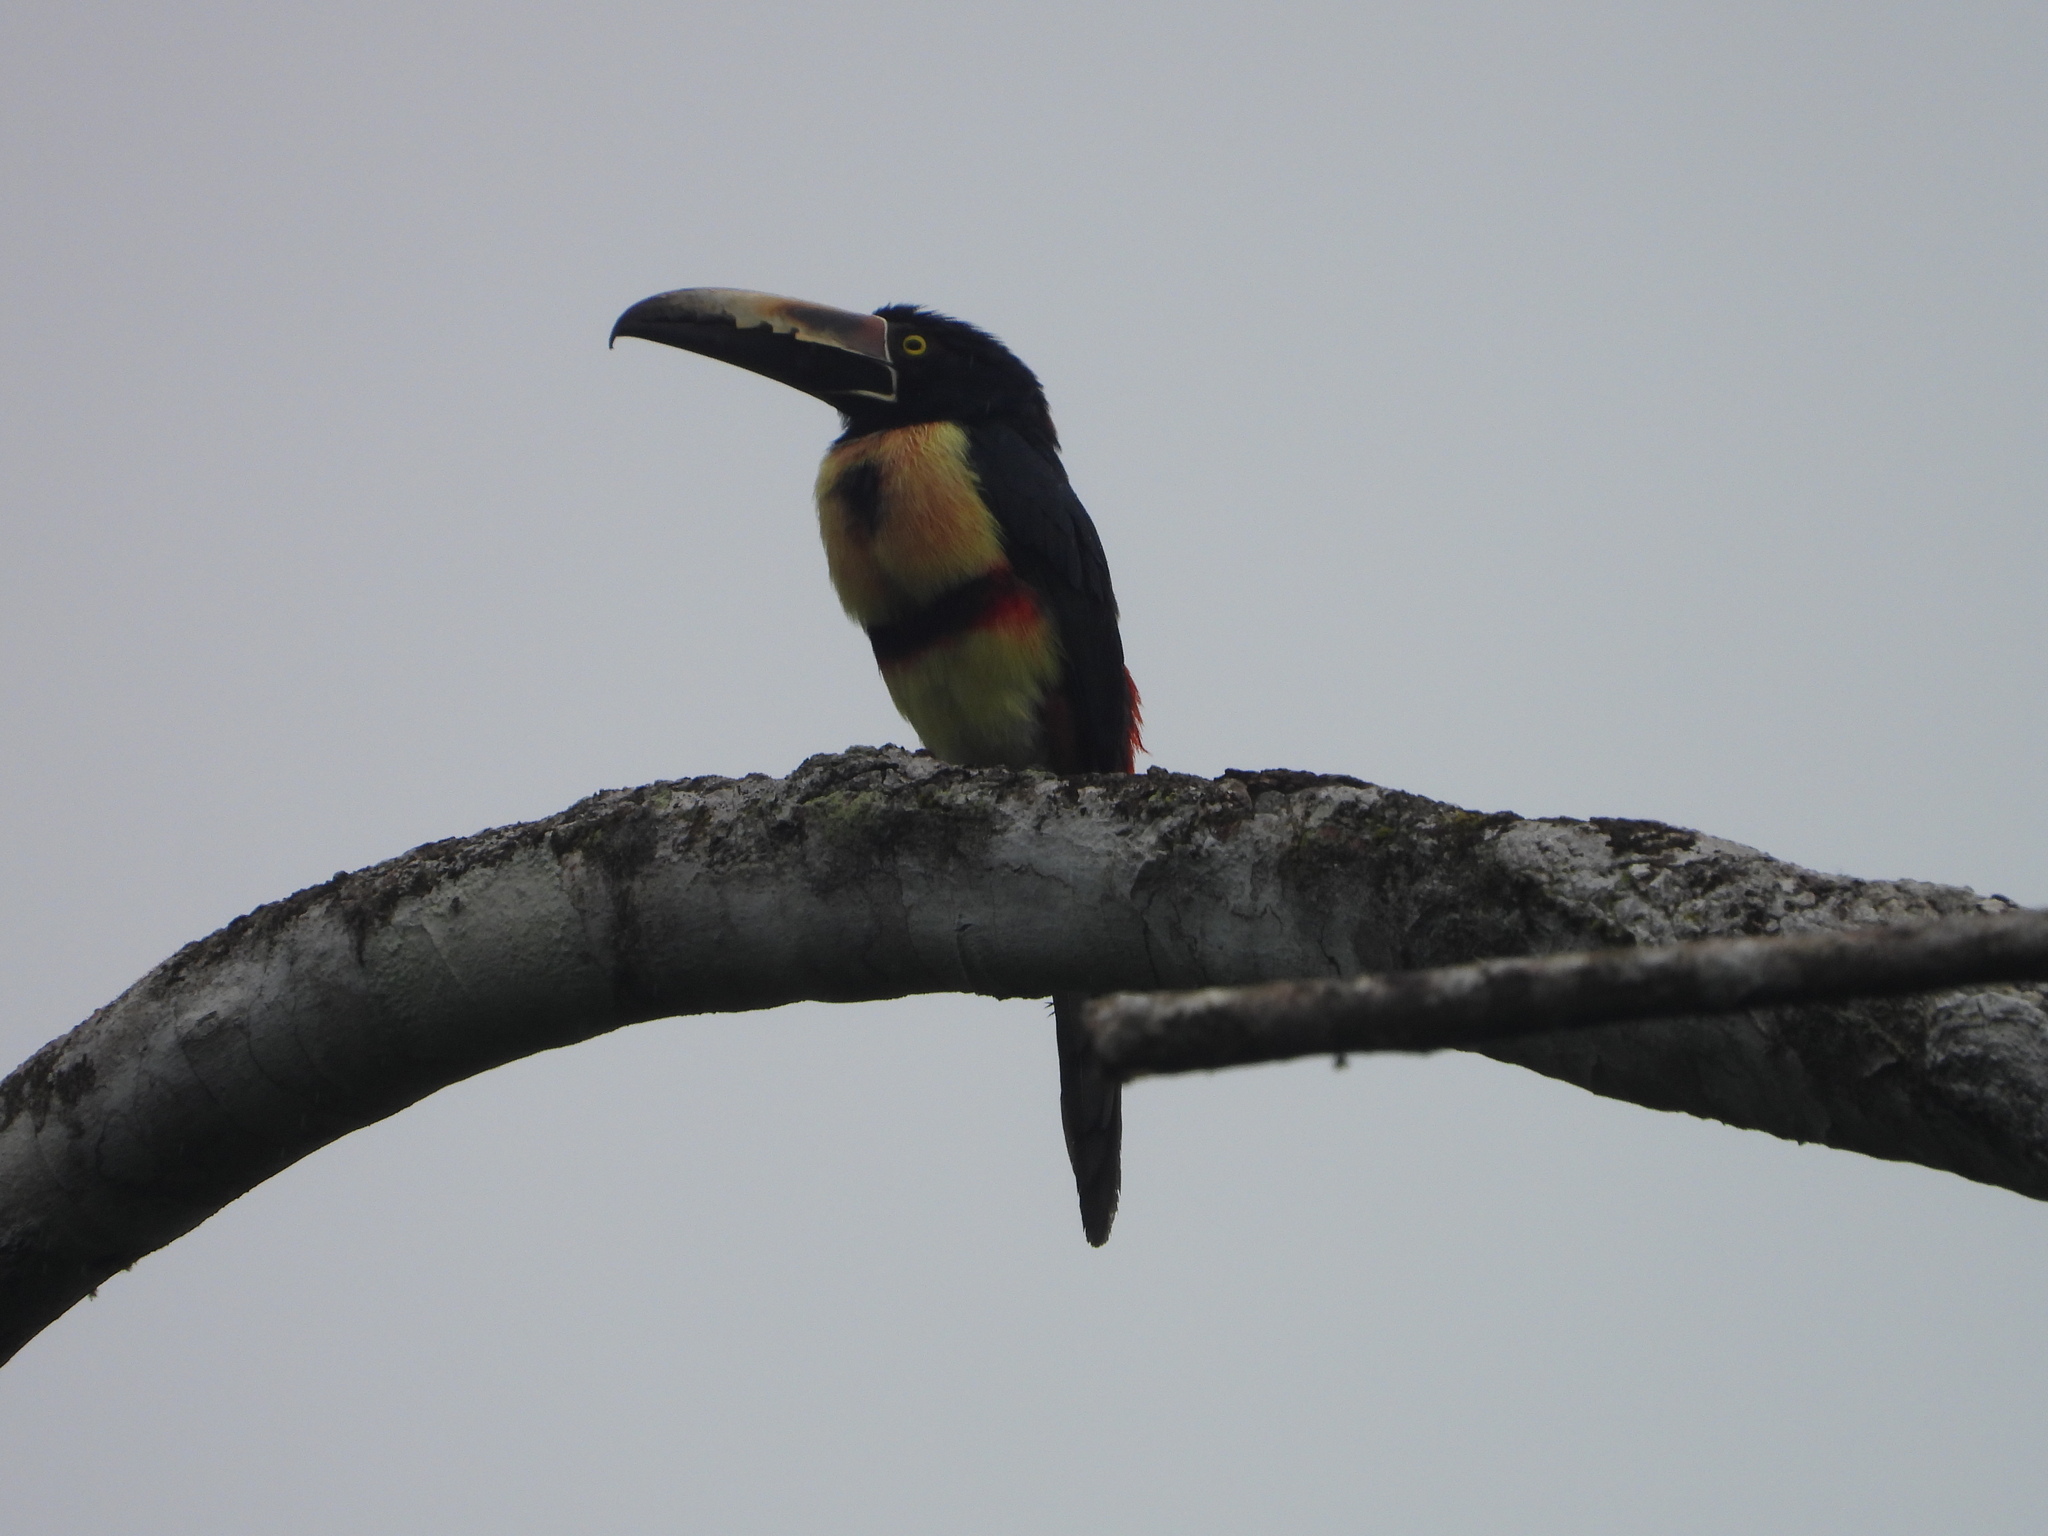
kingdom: Animalia
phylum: Chordata
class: Aves
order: Piciformes
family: Ramphastidae
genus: Pteroglossus
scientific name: Pteroglossus torquatus
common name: Collared aracari
